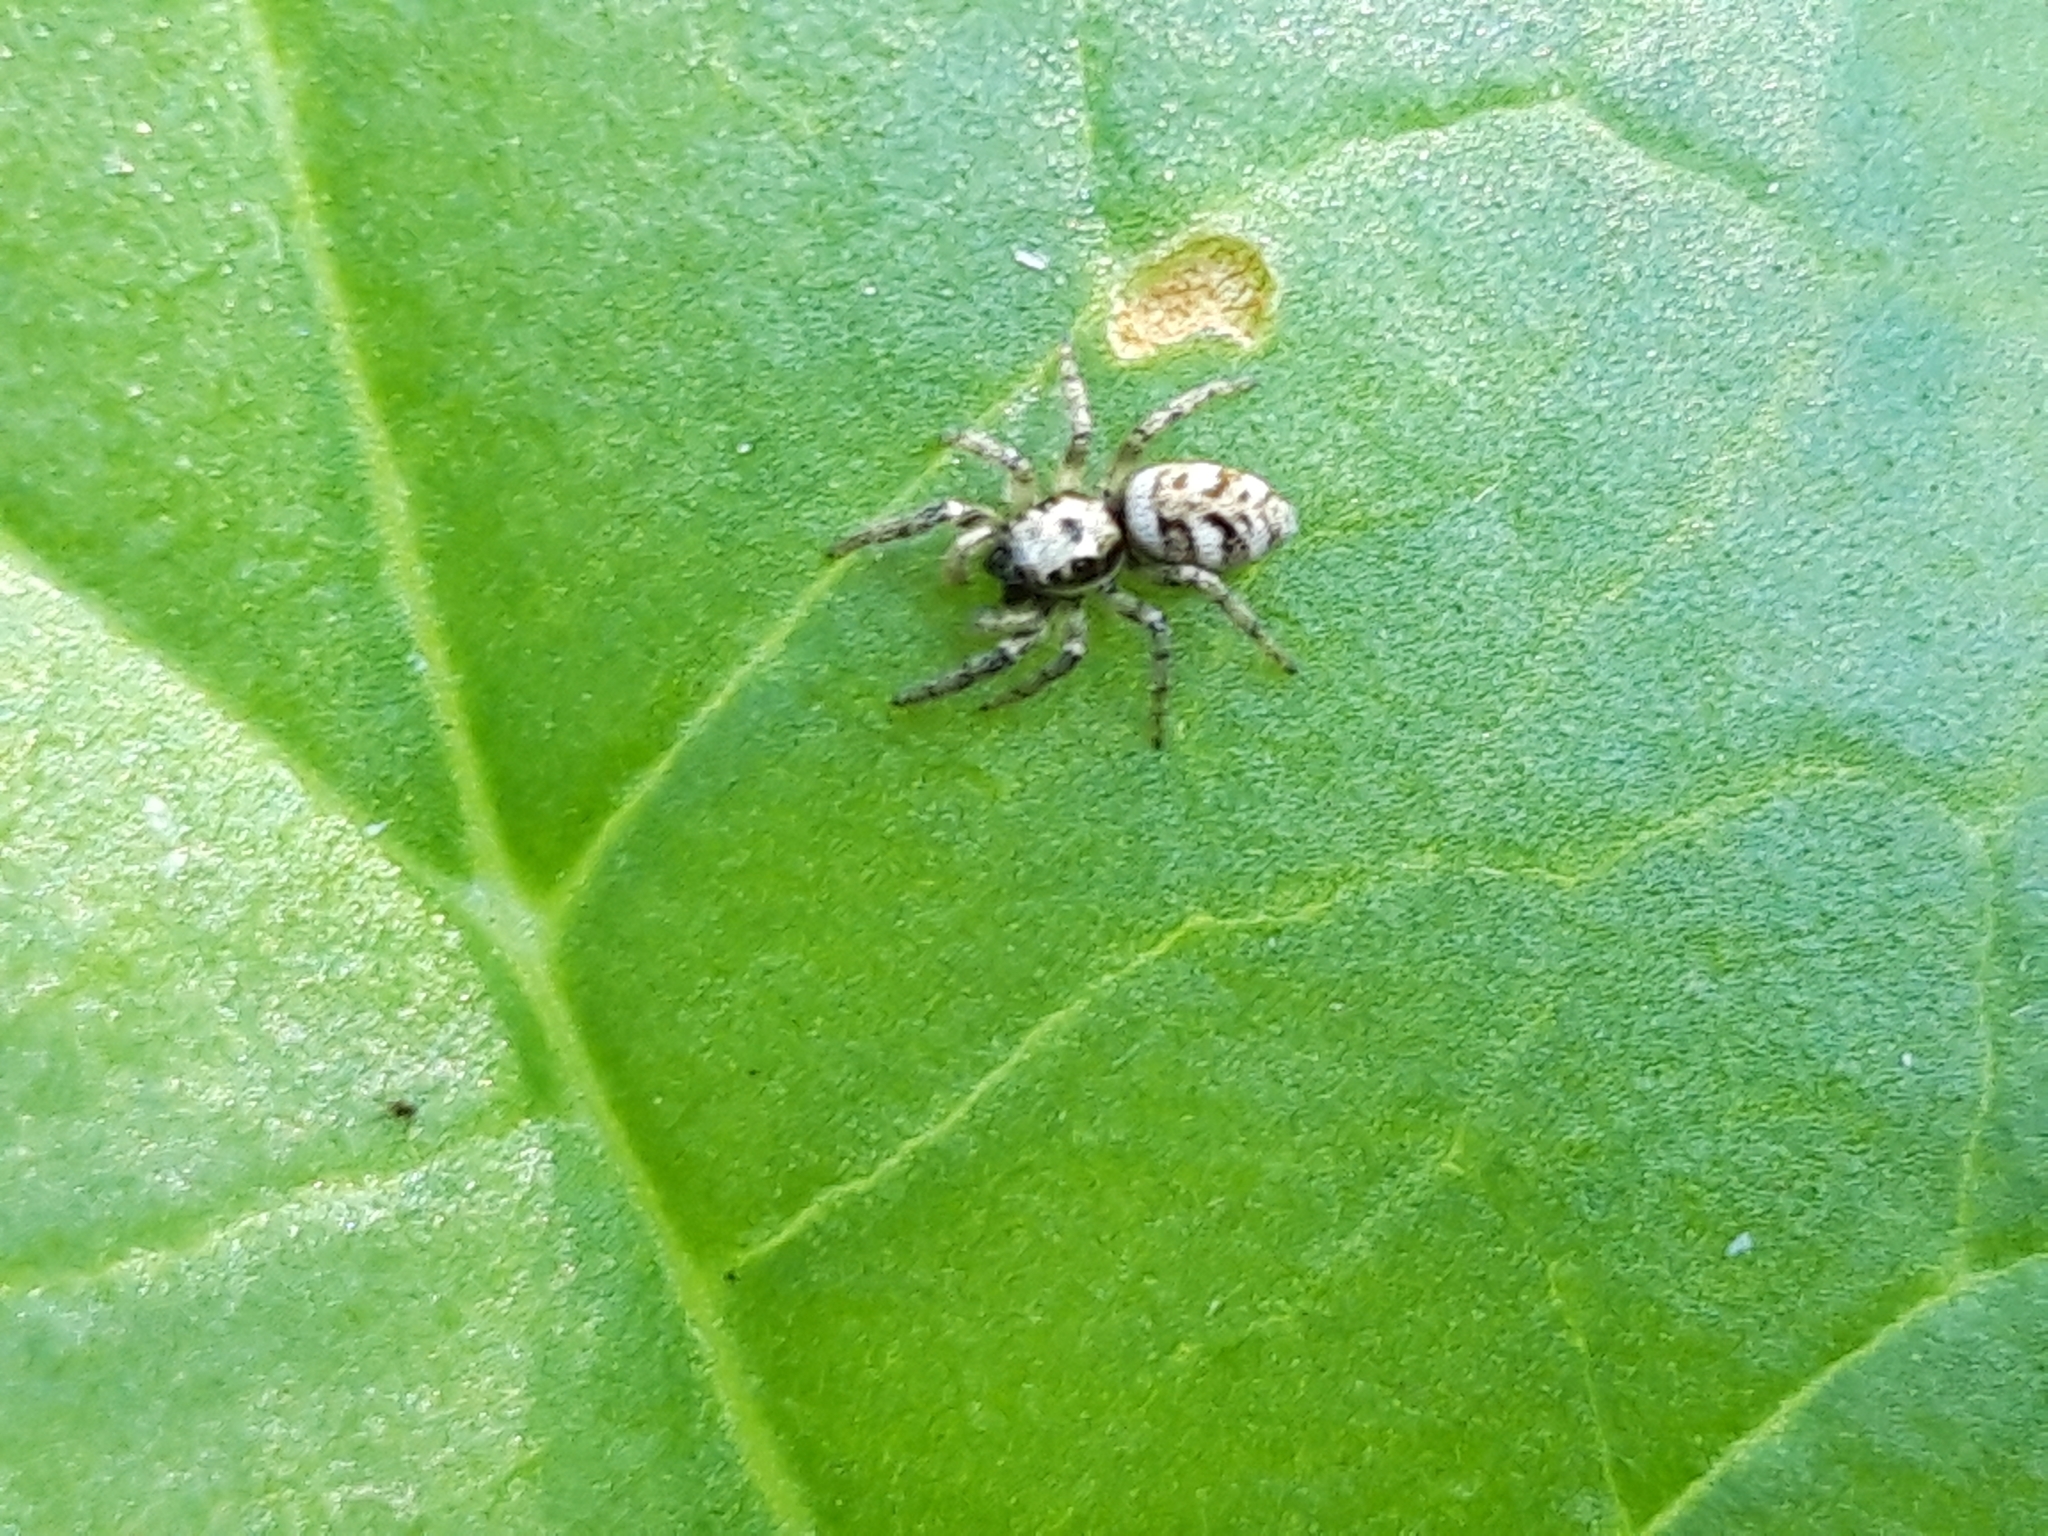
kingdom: Animalia
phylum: Arthropoda
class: Arachnida
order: Araneae
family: Salticidae
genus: Salticus
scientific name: Salticus scenicus
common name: Zebra jumper
